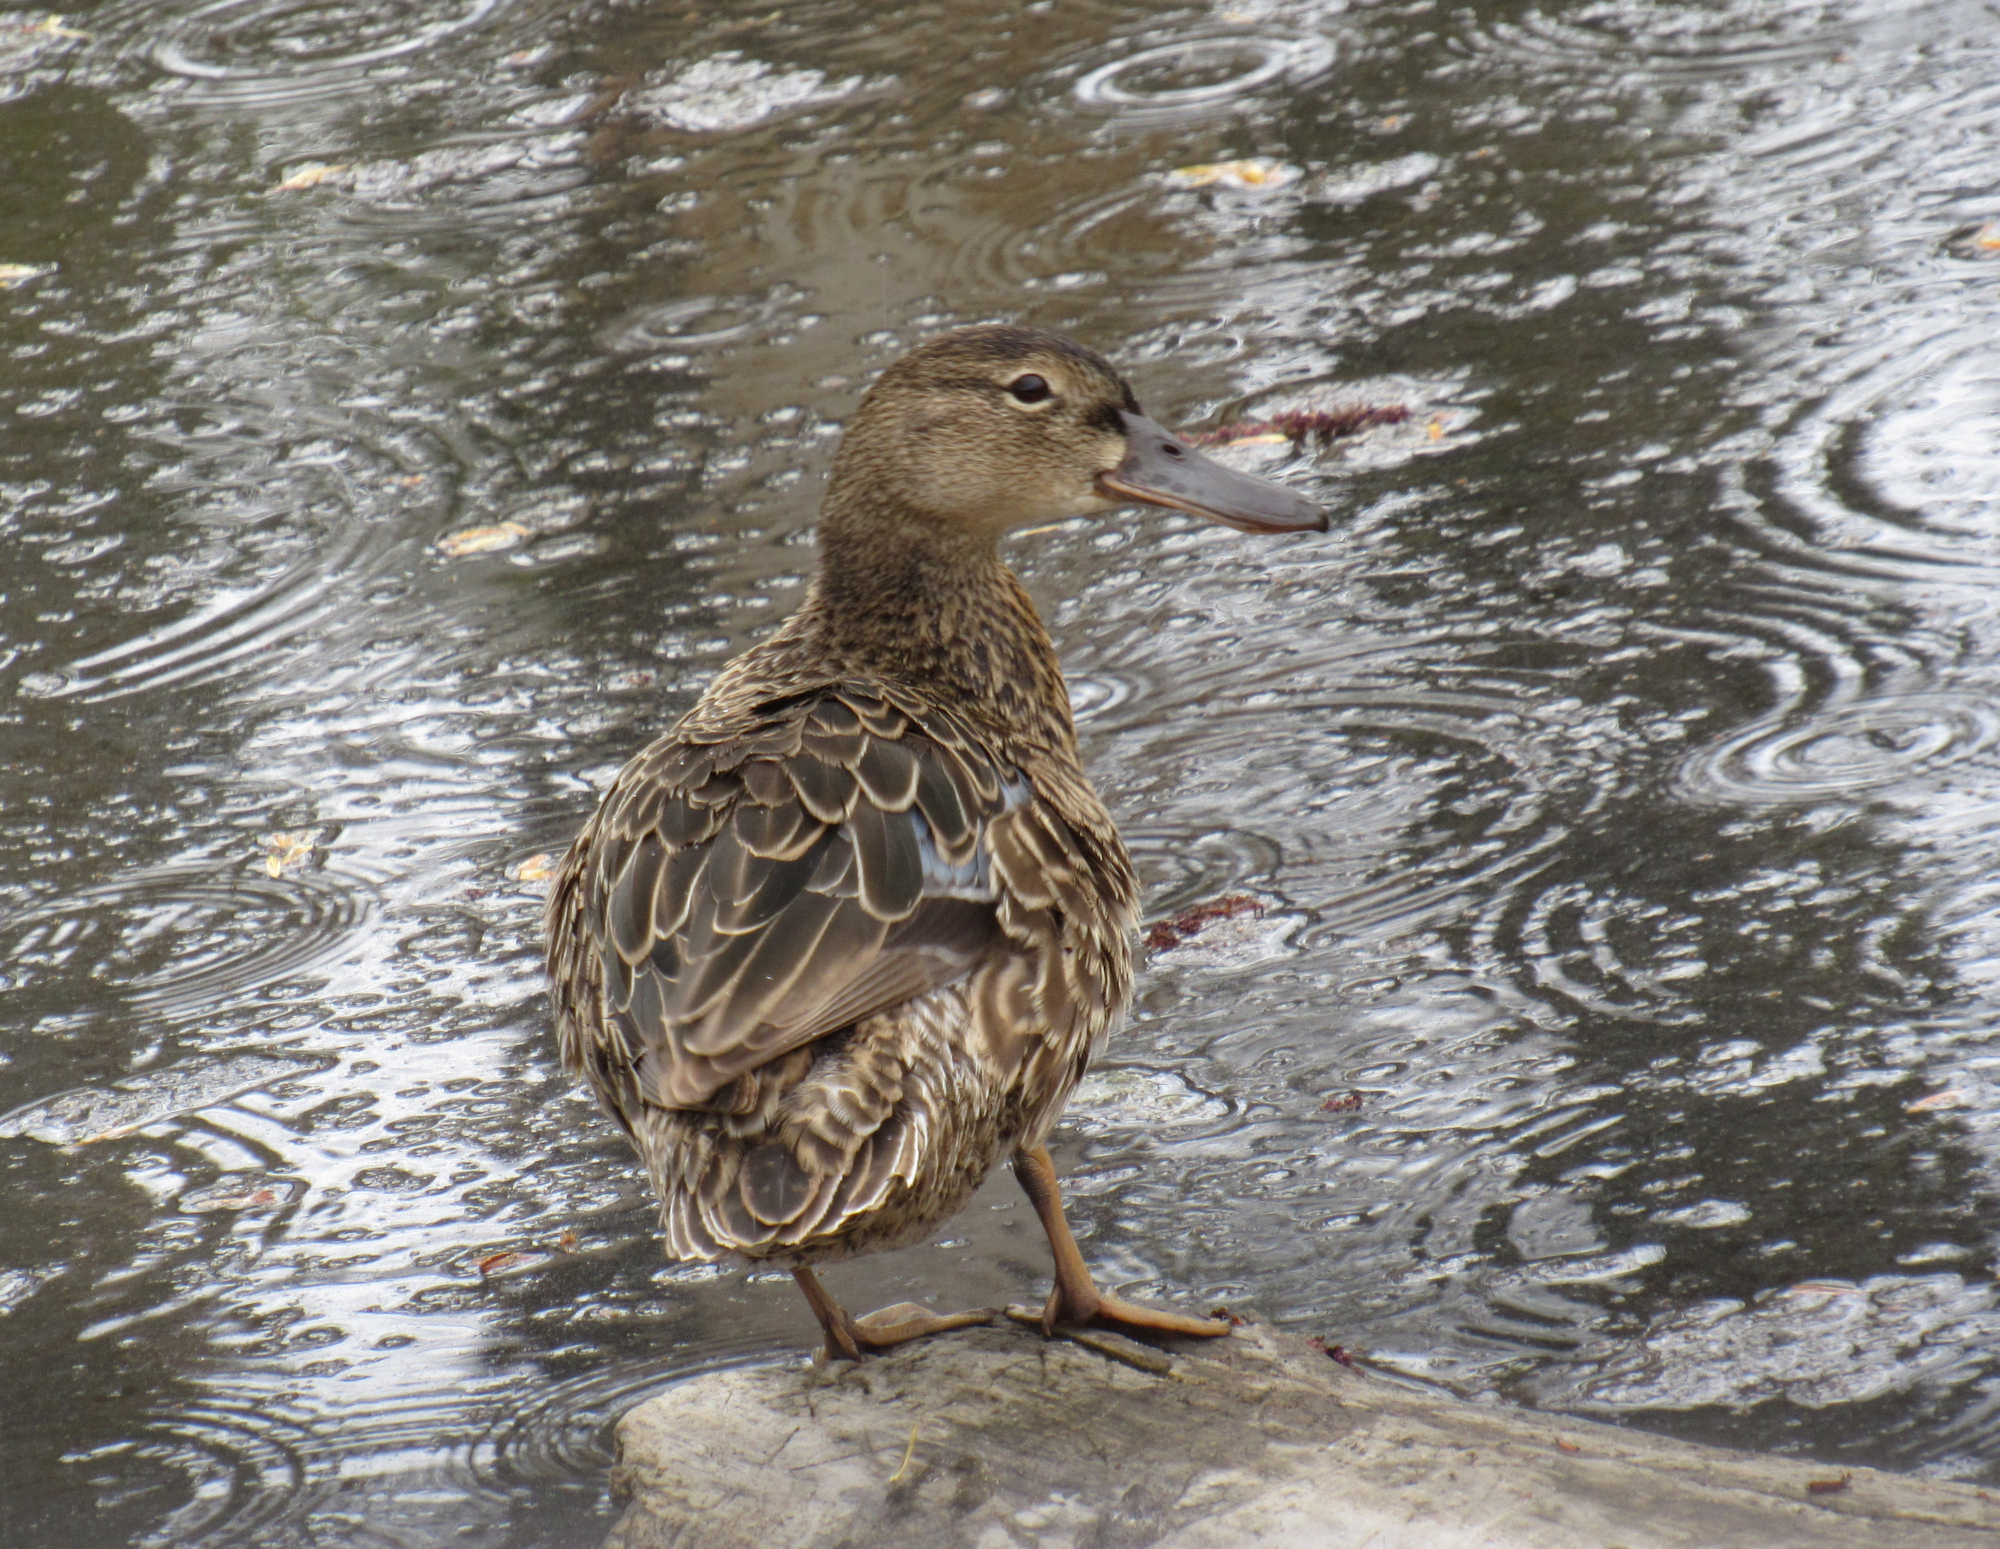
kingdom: Animalia
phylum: Chordata
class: Aves
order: Anseriformes
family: Anatidae
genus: Spatula
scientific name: Spatula cyanoptera
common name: Cinnamon teal
